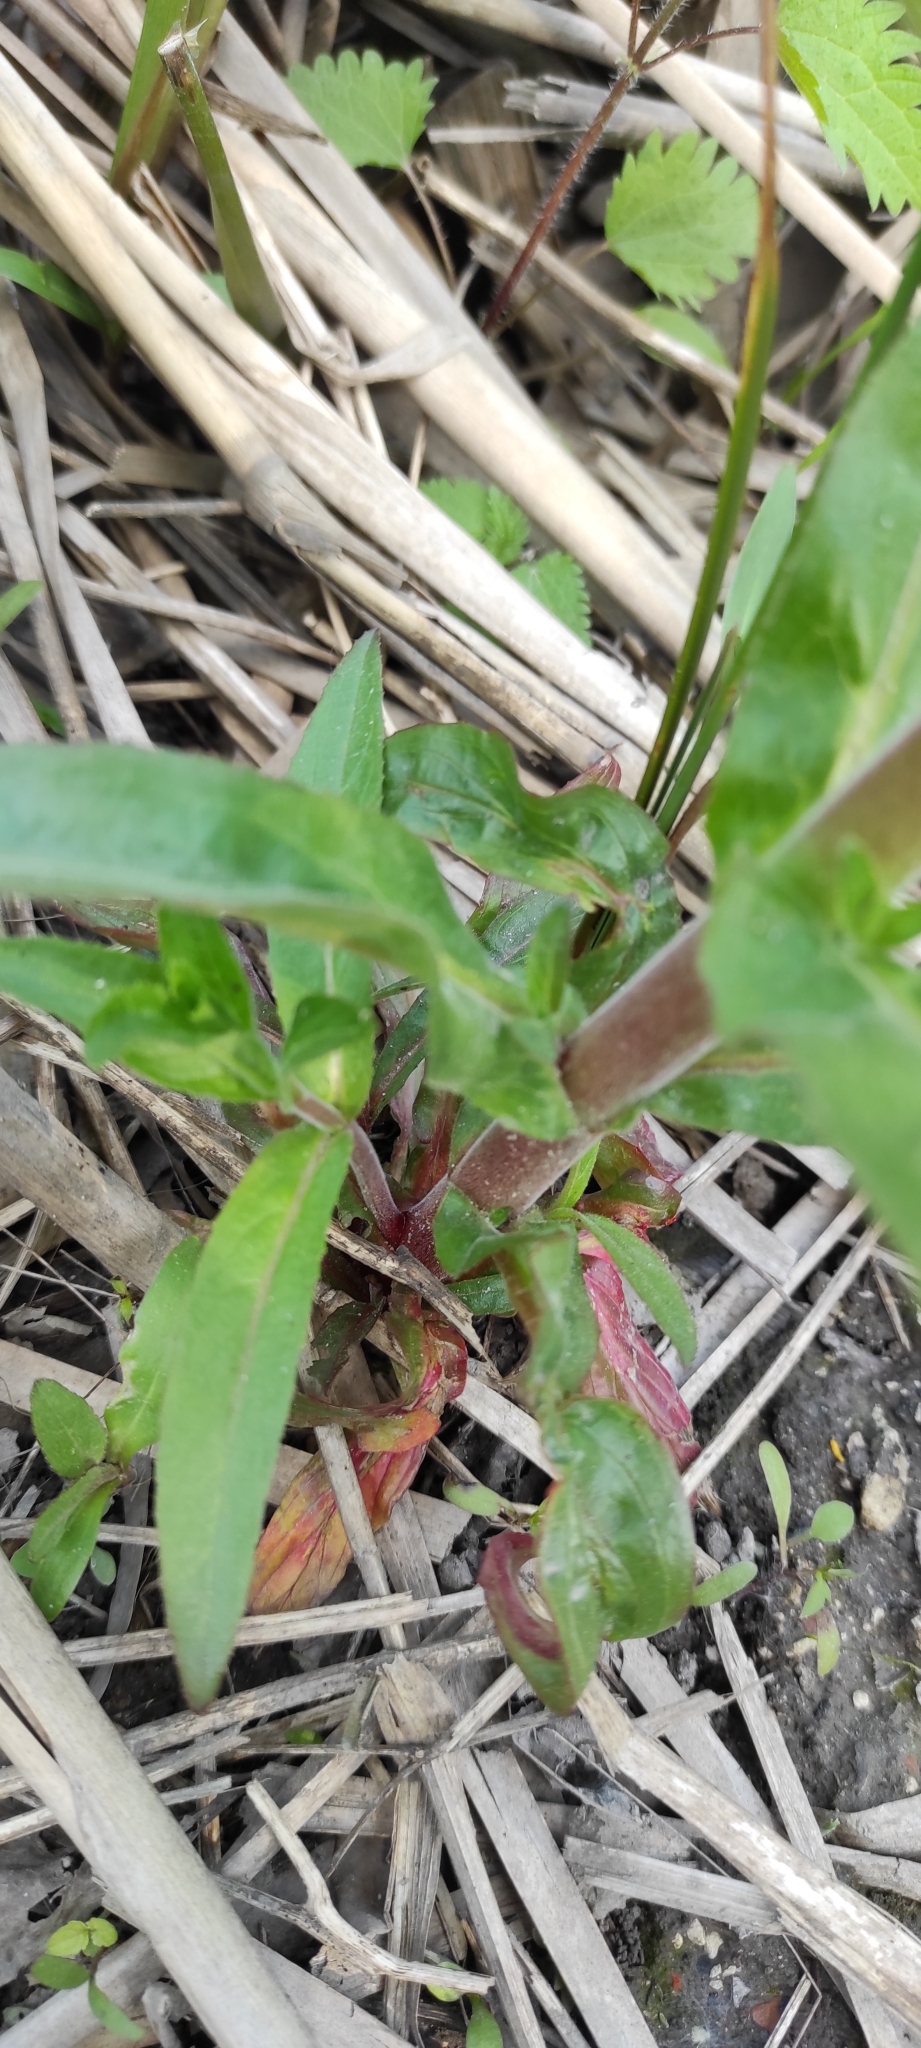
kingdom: Plantae
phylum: Tracheophyta
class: Magnoliopsida
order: Myrtales
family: Onagraceae
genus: Epilobium
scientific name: Epilobium hirsutum
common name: Great willowherb
